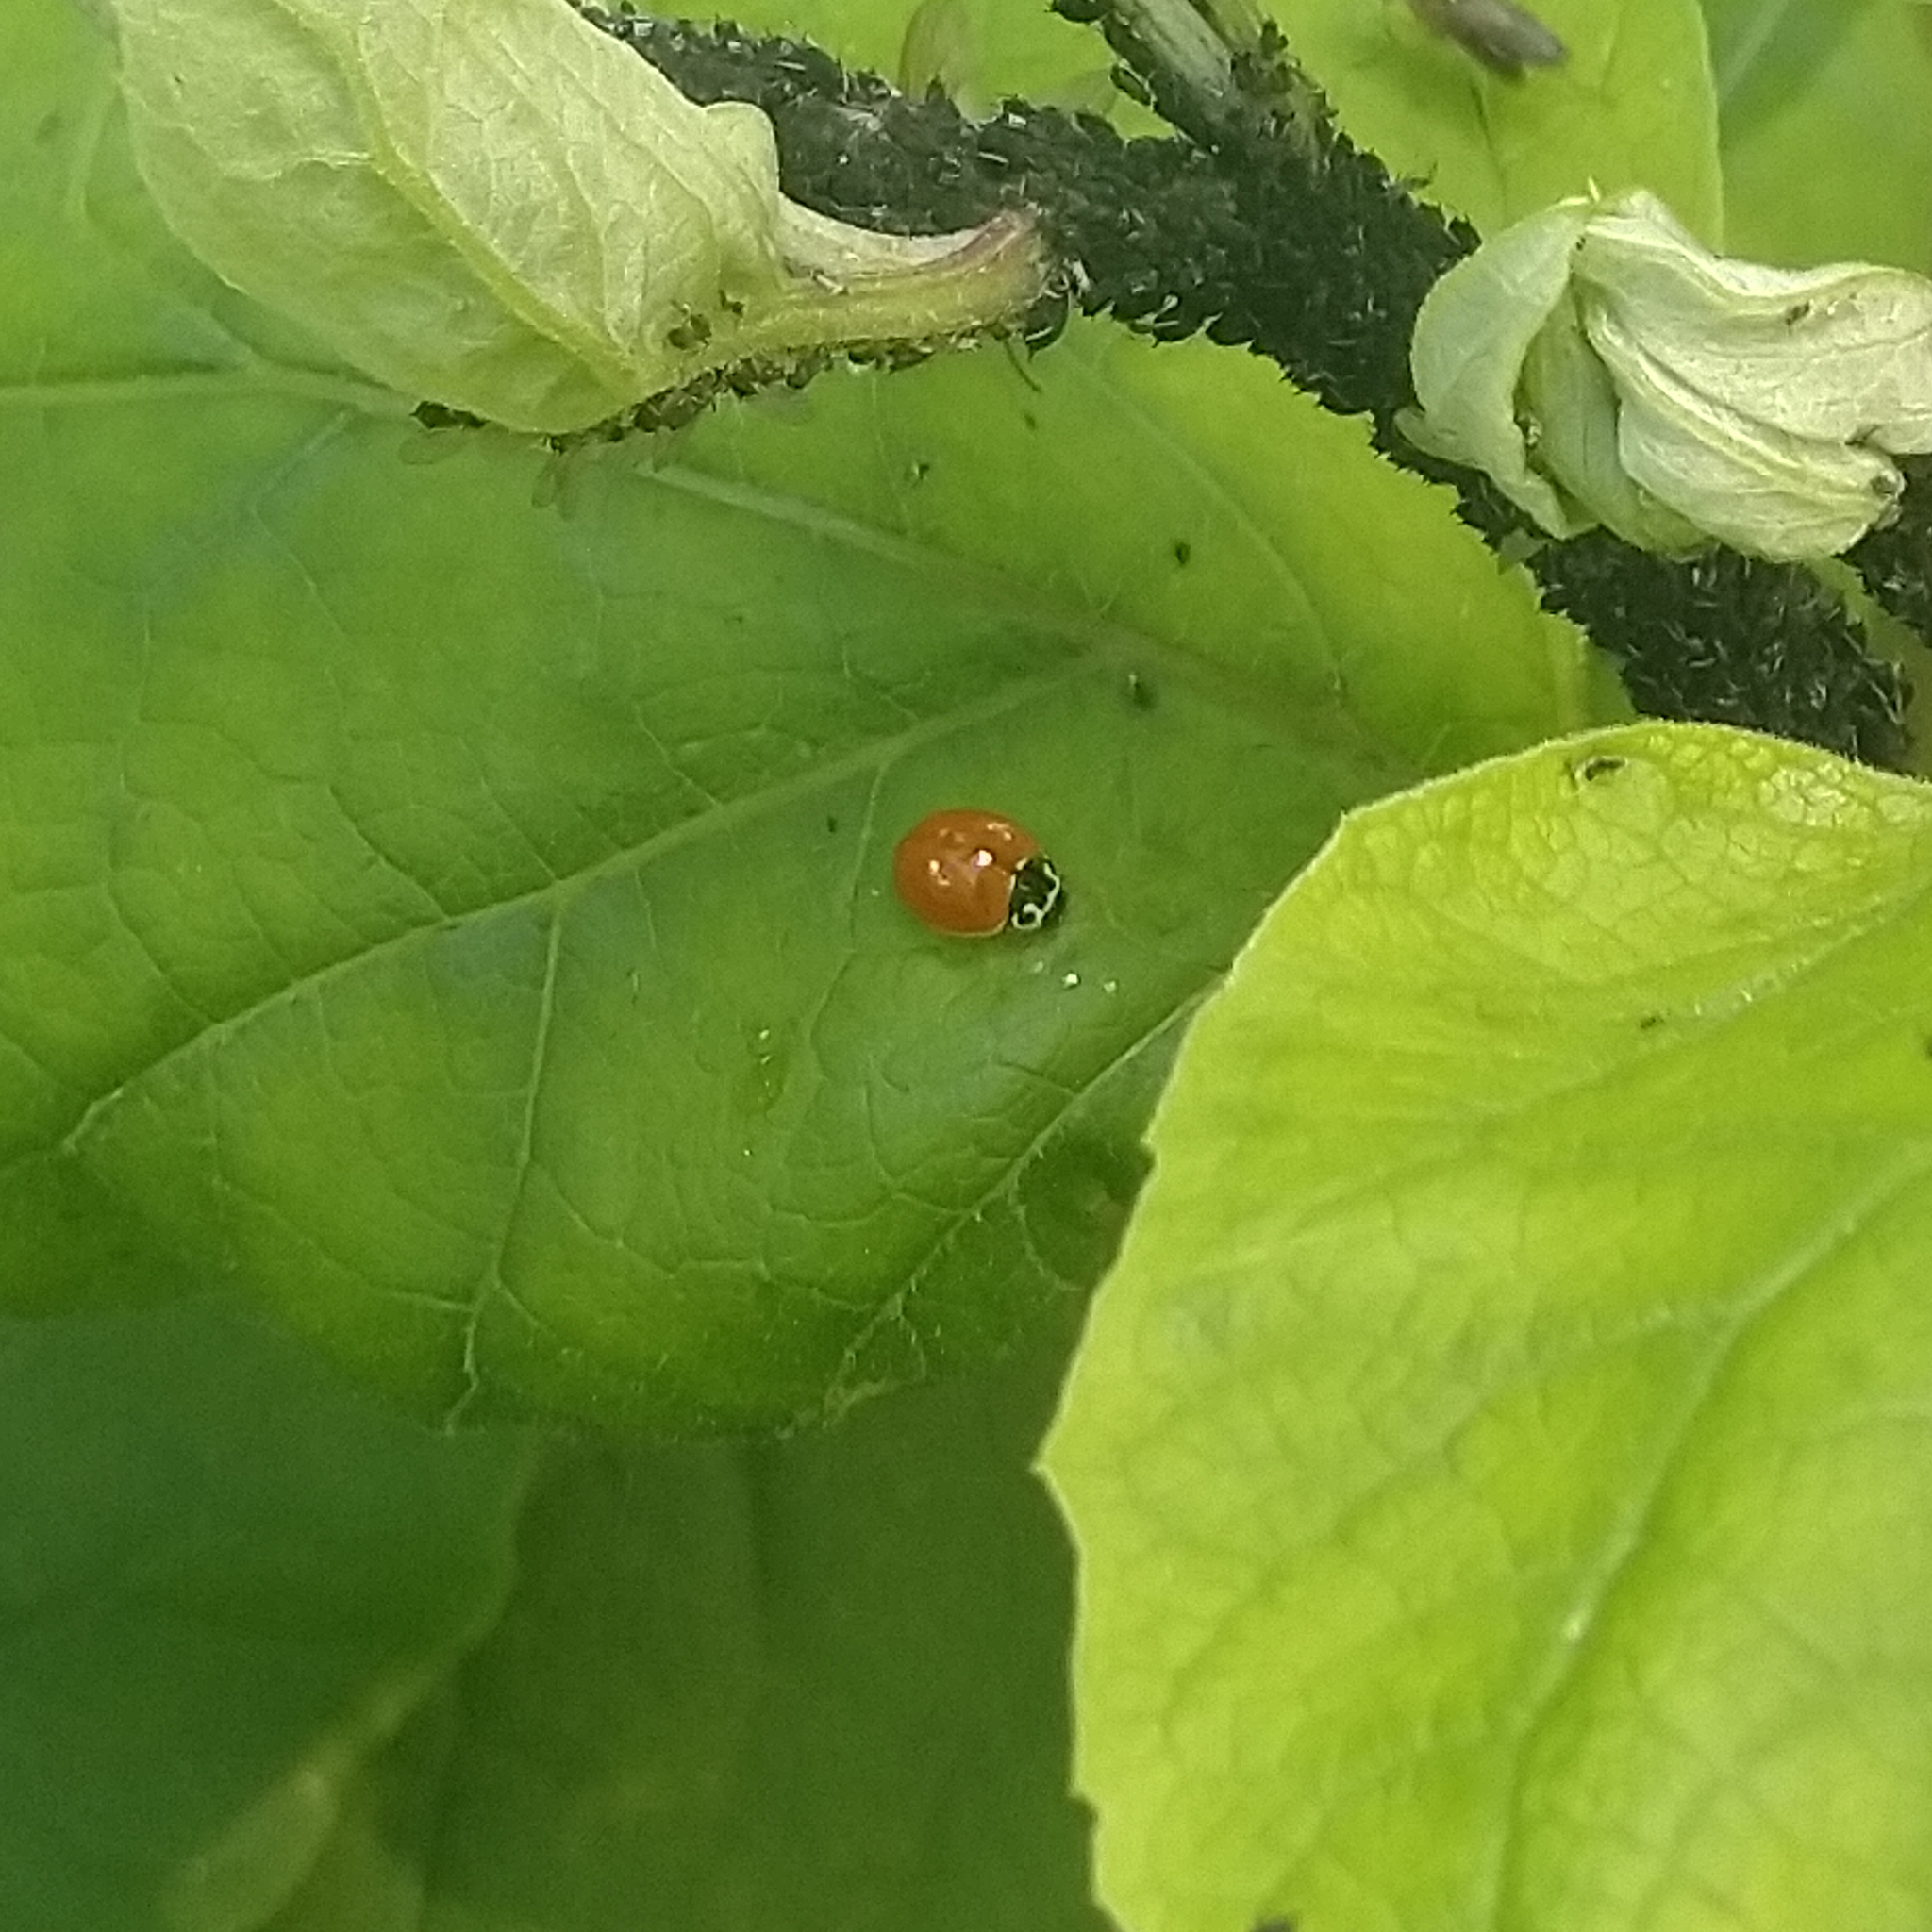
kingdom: Animalia
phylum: Arthropoda
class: Insecta
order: Coleoptera
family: Coccinellidae
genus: Cycloneda
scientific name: Cycloneda munda
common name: Polished lady beetle
